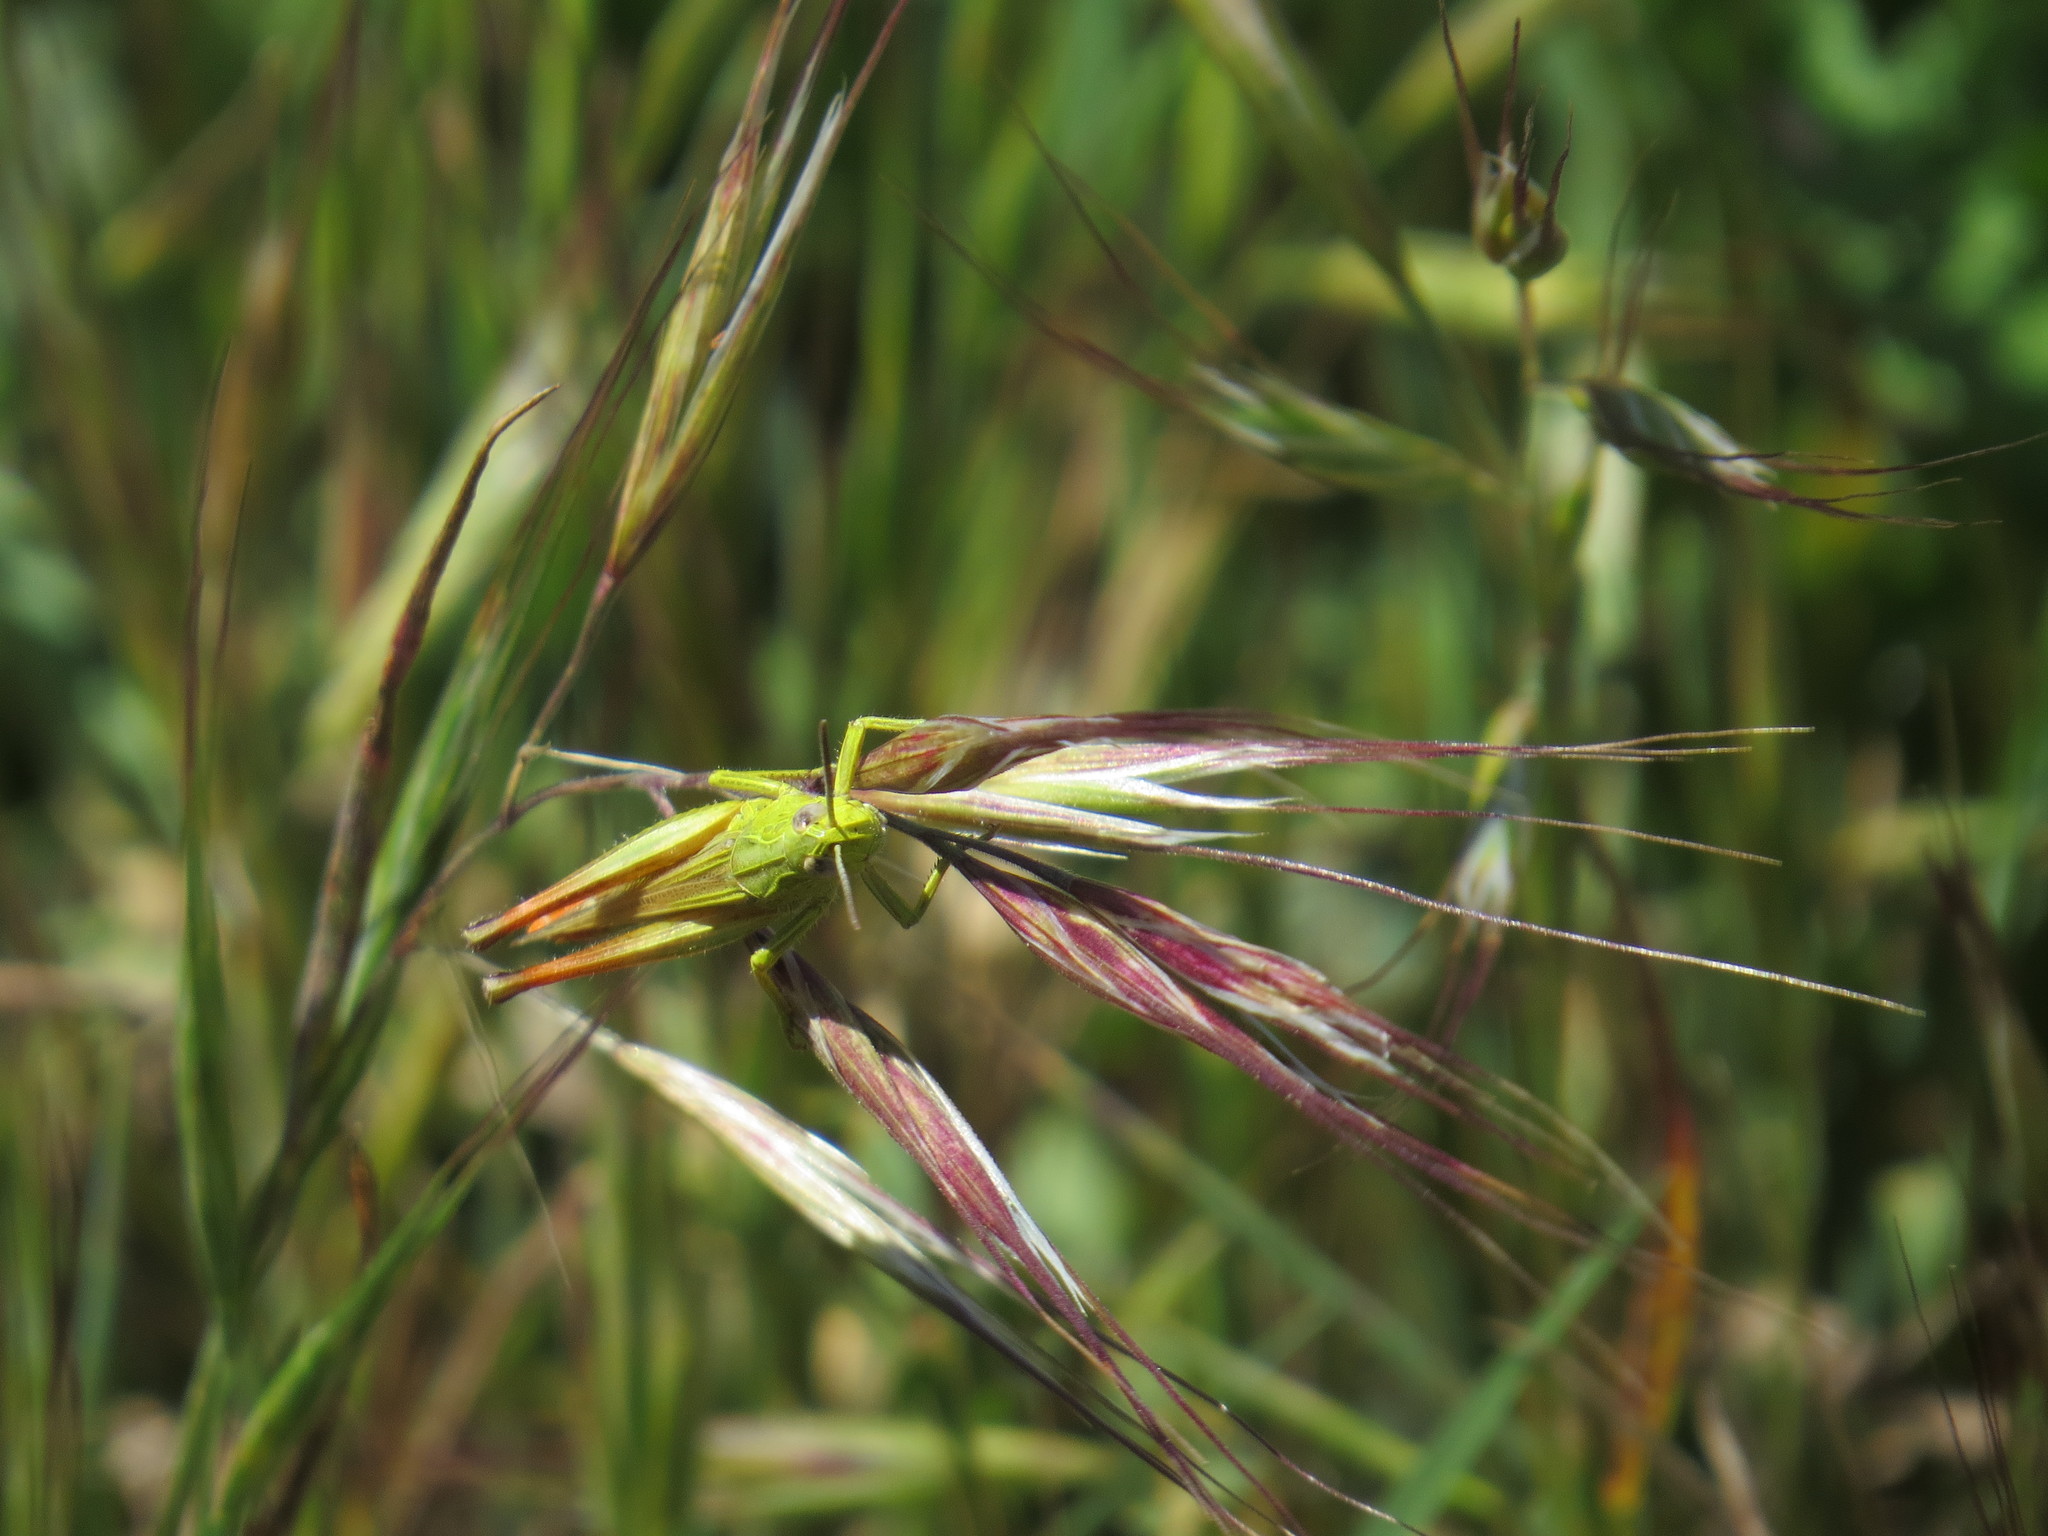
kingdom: Animalia
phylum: Arthropoda
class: Insecta
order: Orthoptera
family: Acrididae
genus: Chorthippus
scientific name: Chorthippus apicalis
